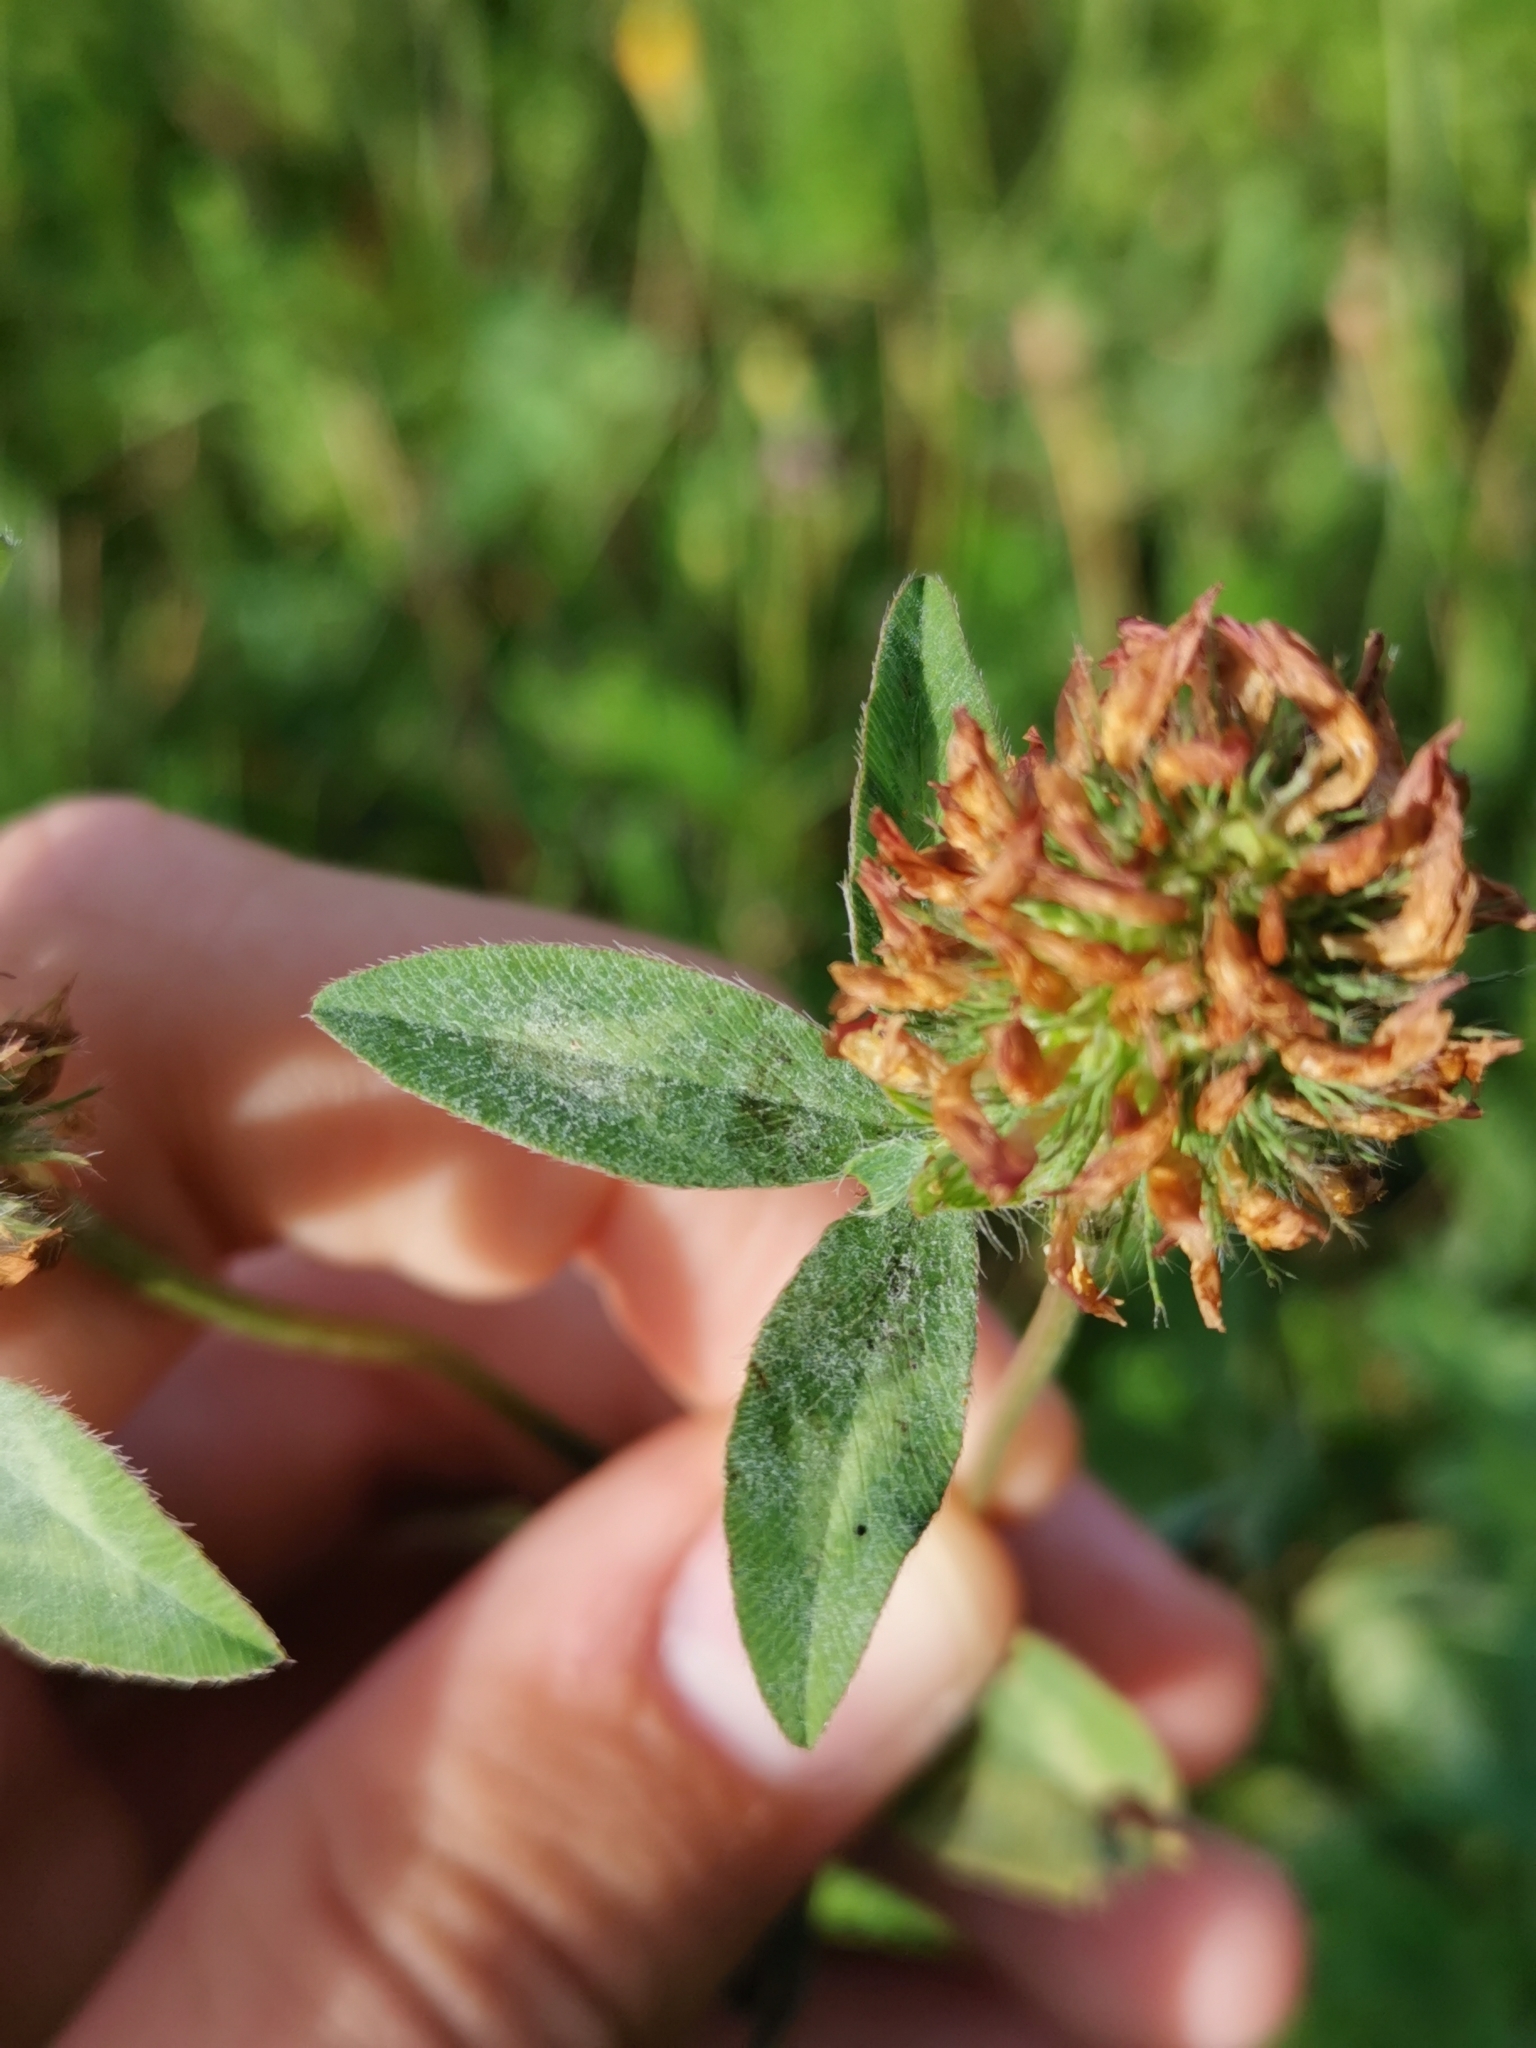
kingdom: Plantae
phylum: Tracheophyta
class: Magnoliopsida
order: Fabales
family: Fabaceae
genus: Trifolium
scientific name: Trifolium pratense
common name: Red clover
